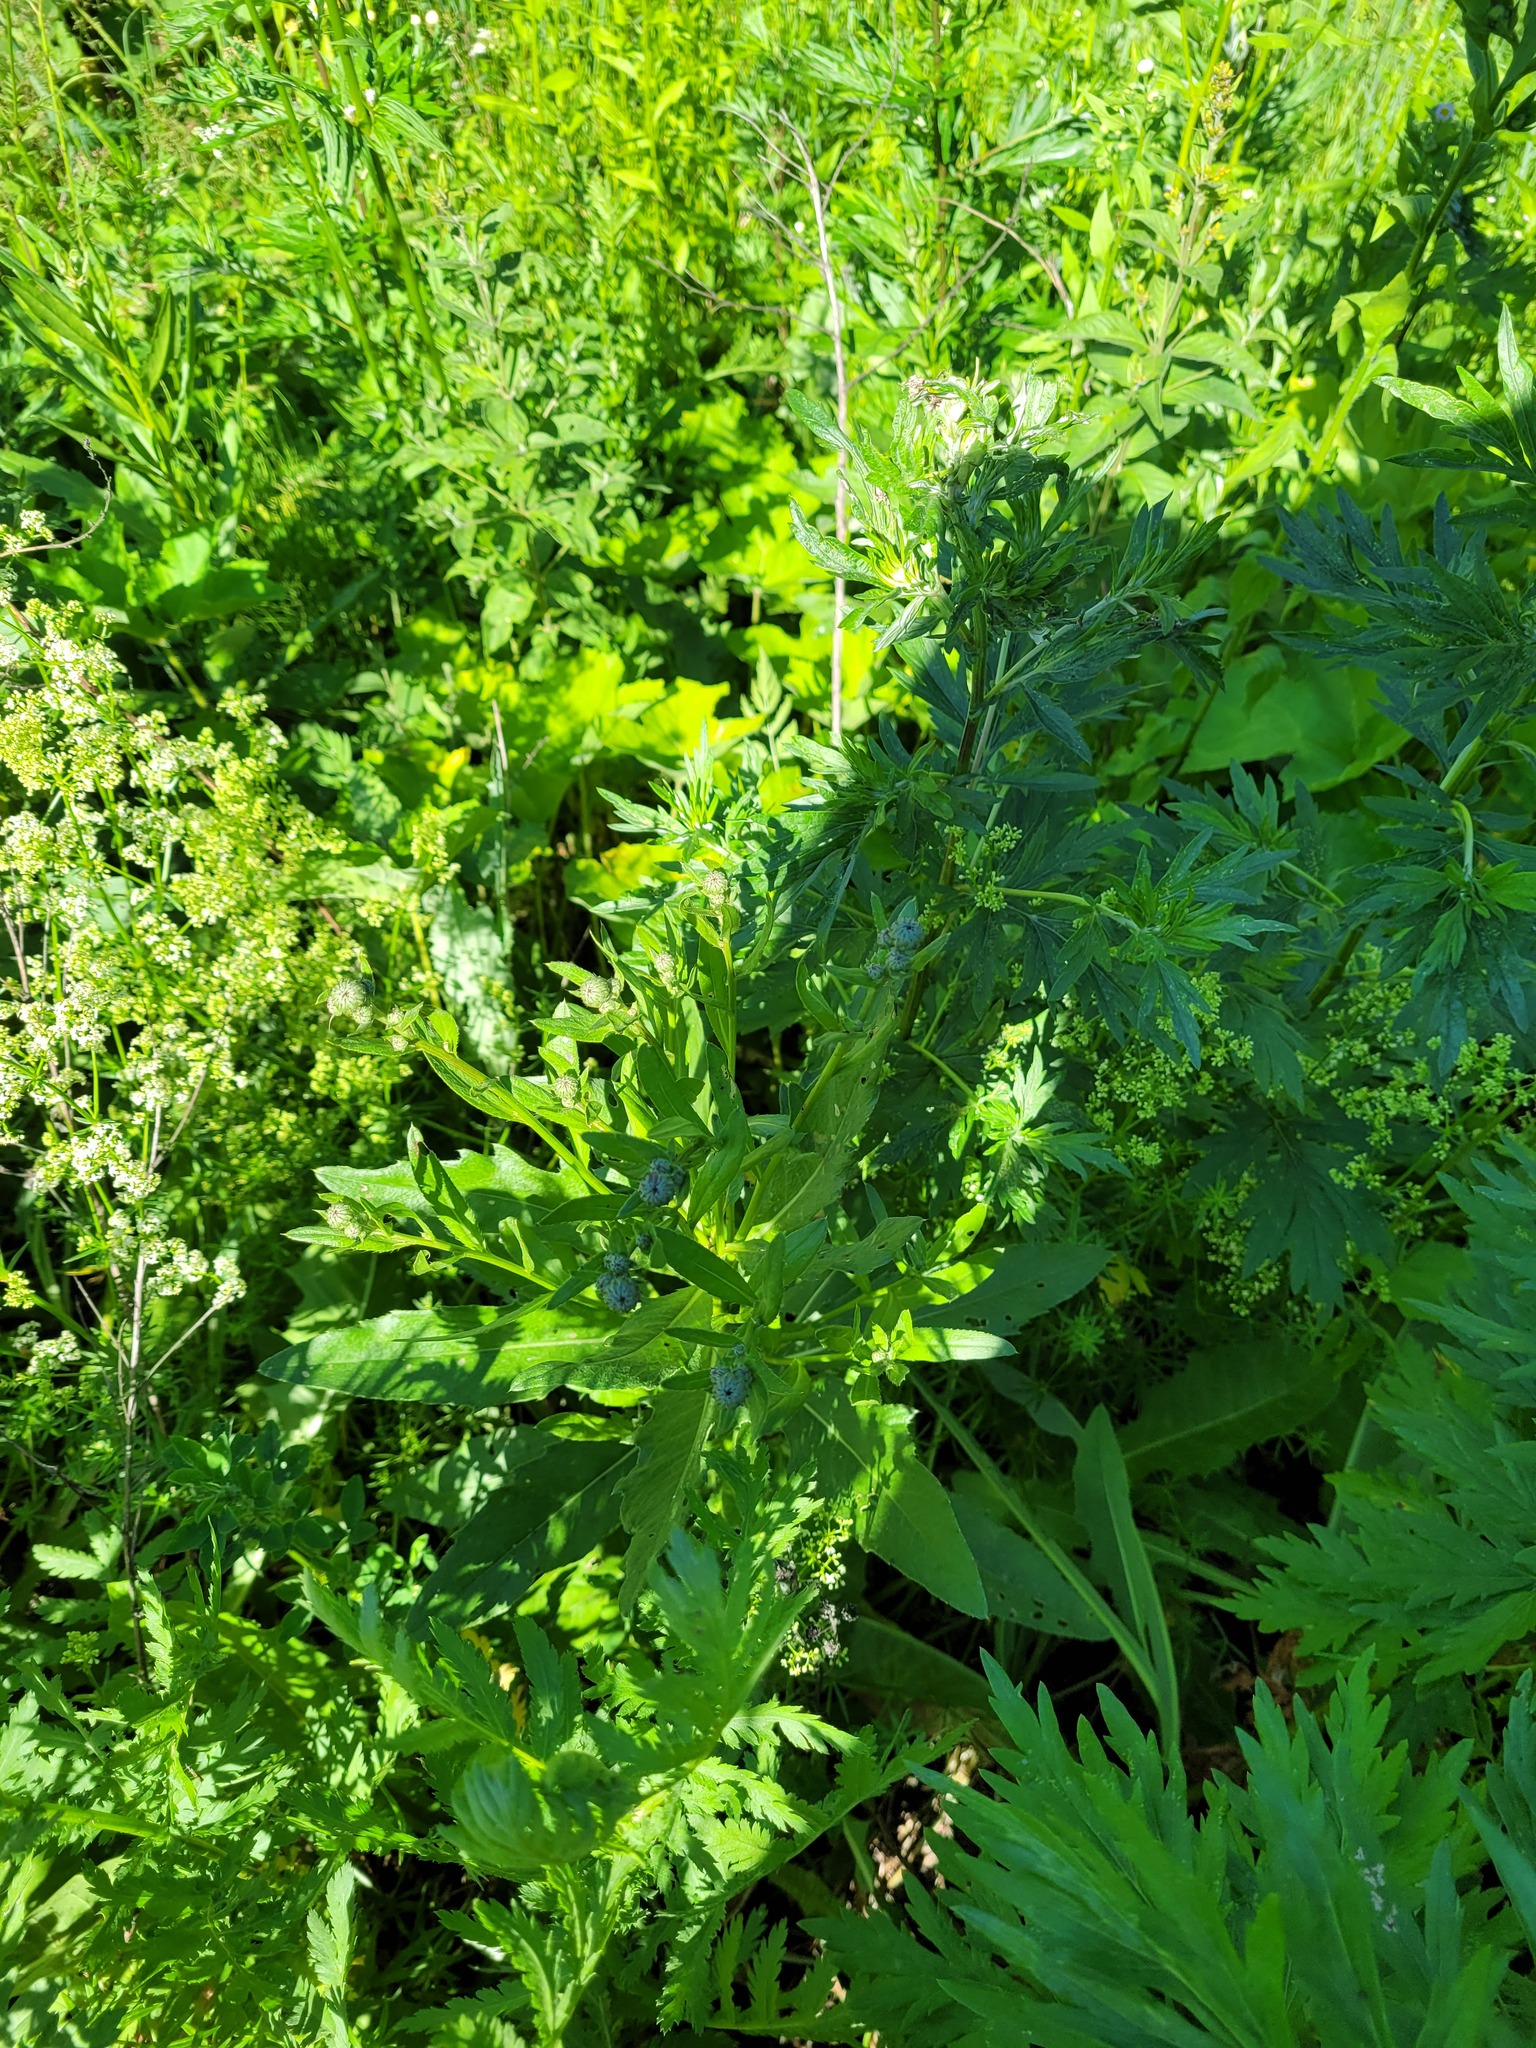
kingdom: Plantae
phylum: Tracheophyta
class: Magnoliopsida
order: Ericales
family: Primulaceae
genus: Lysimachia
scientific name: Lysimachia vulgaris
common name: Yellow loosestrife
